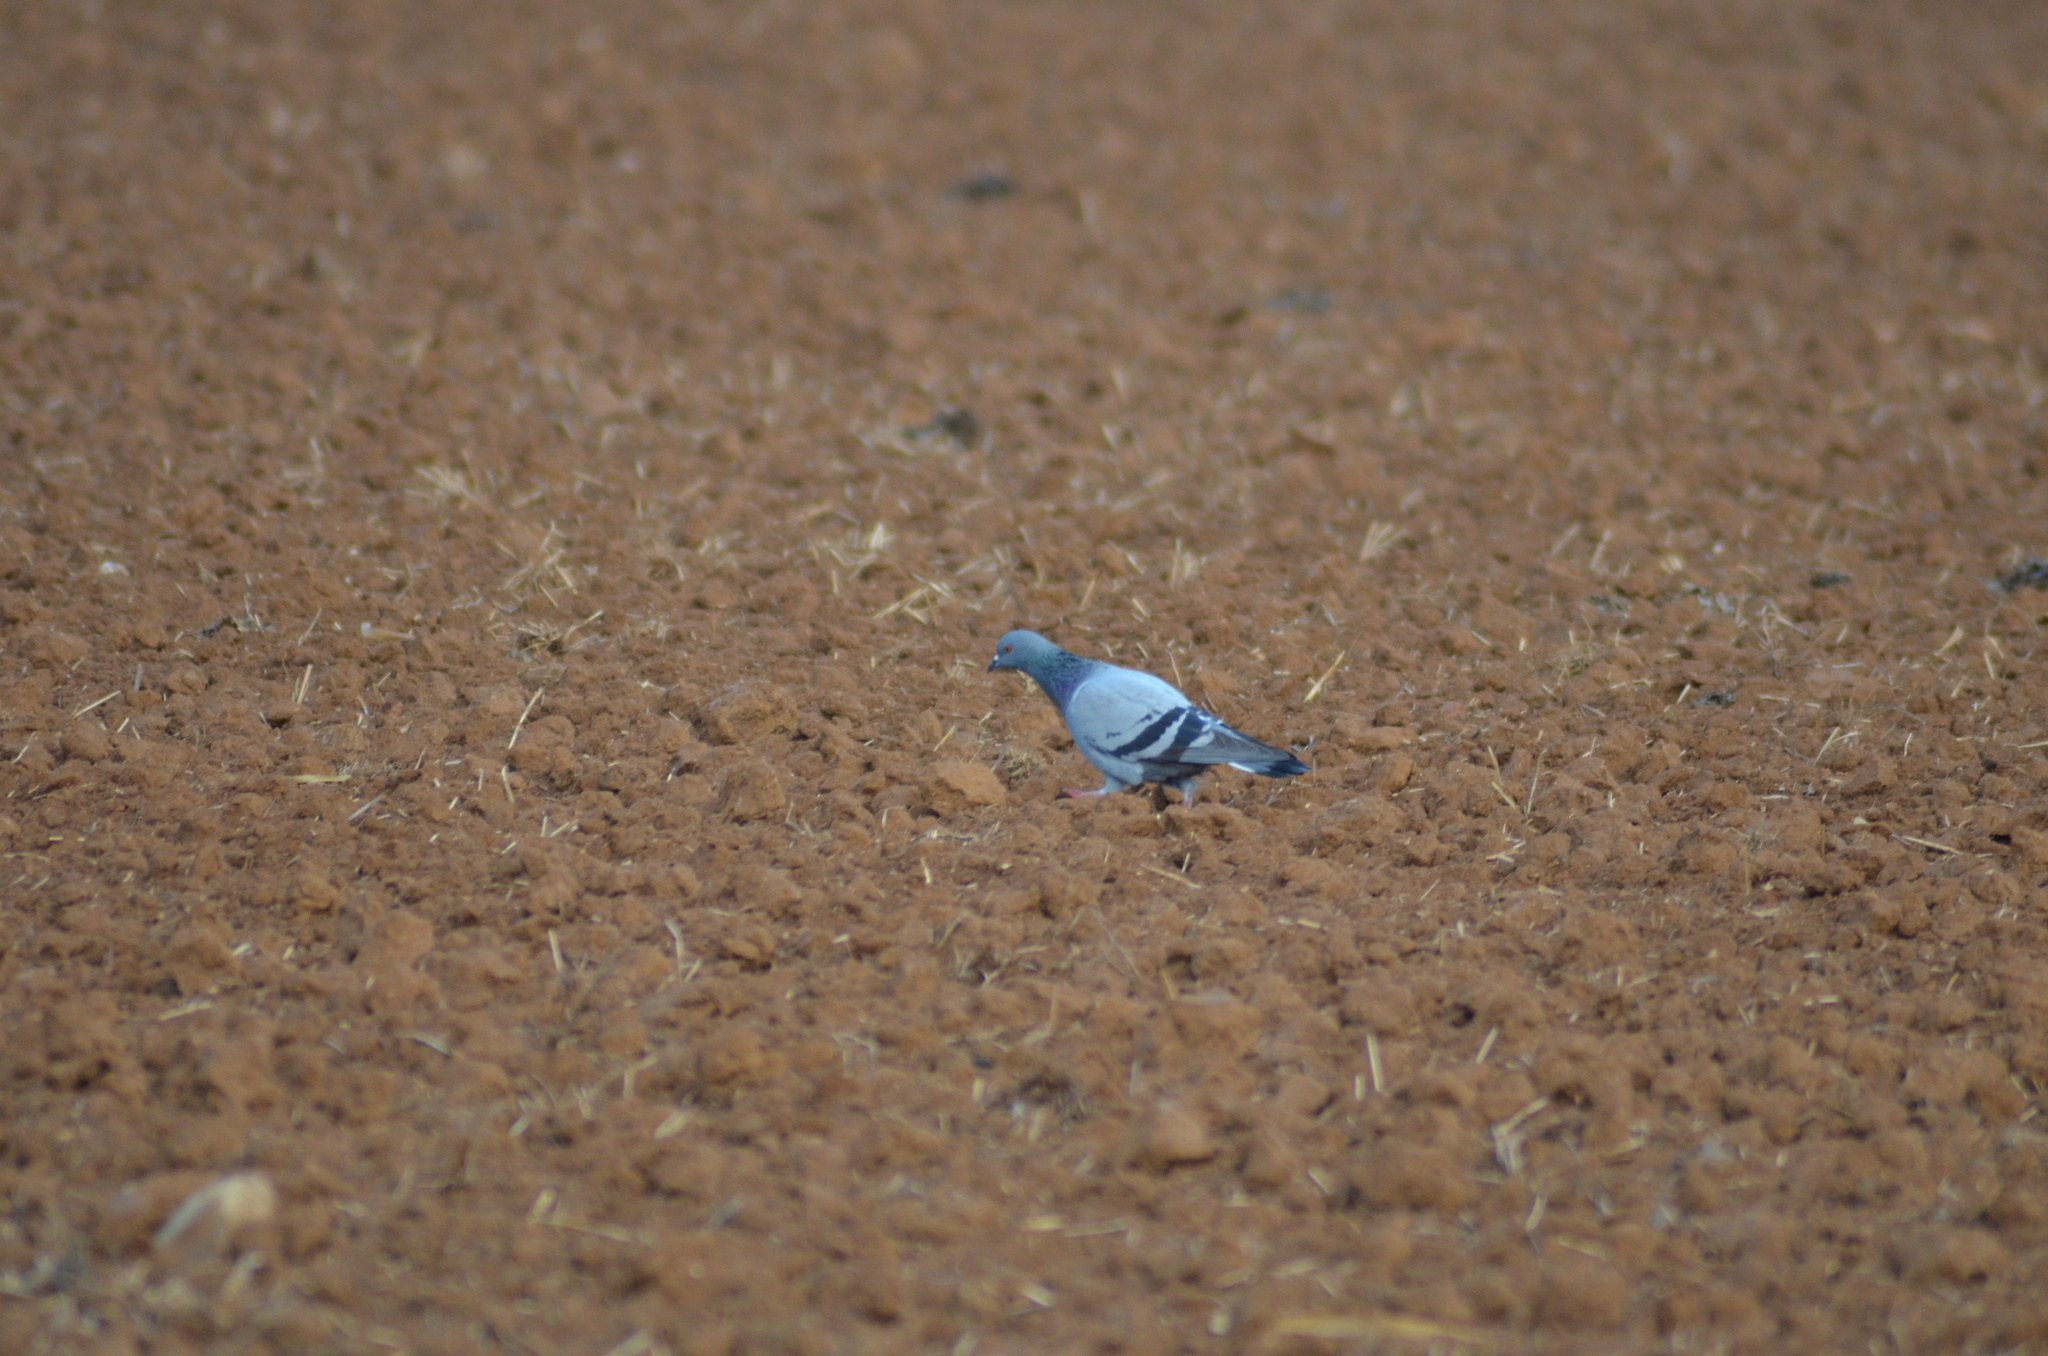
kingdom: Animalia
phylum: Chordata
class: Aves
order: Columbiformes
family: Columbidae
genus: Columba
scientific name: Columba livia
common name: Rock pigeon
